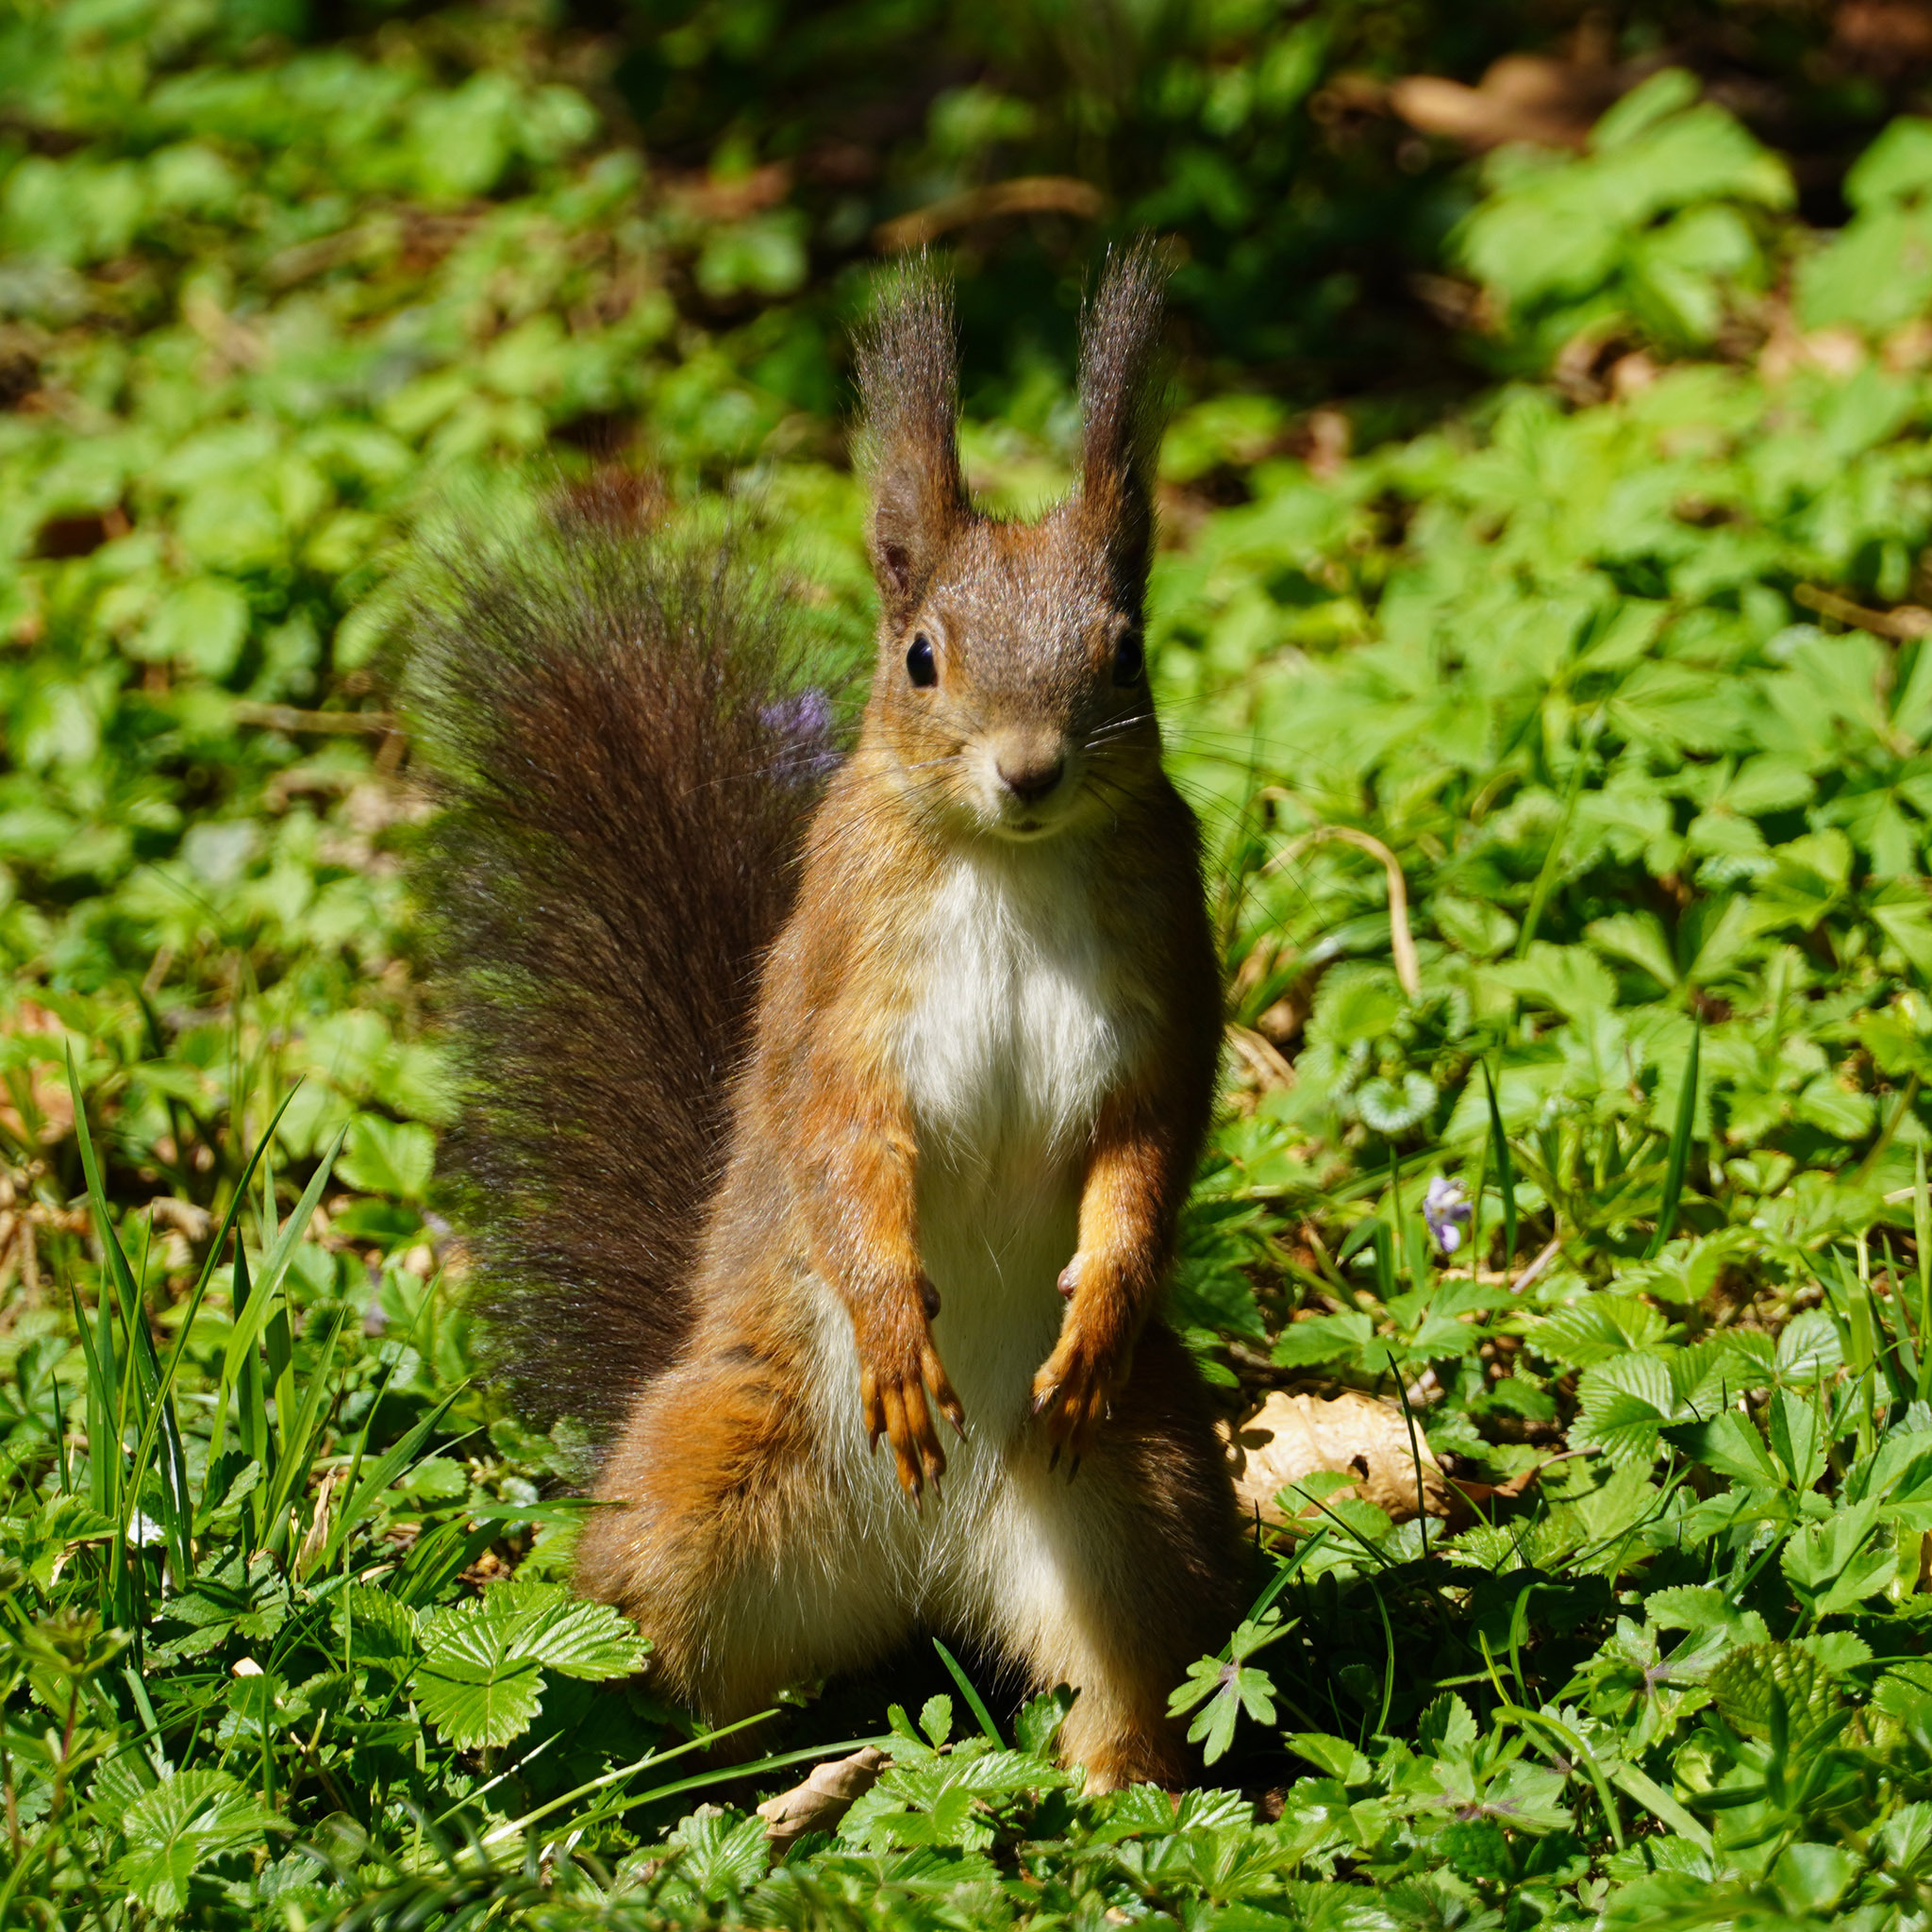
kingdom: Animalia
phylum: Chordata
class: Mammalia
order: Rodentia
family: Sciuridae
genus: Sciurus
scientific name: Sciurus vulgaris
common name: Eurasian red squirrel
